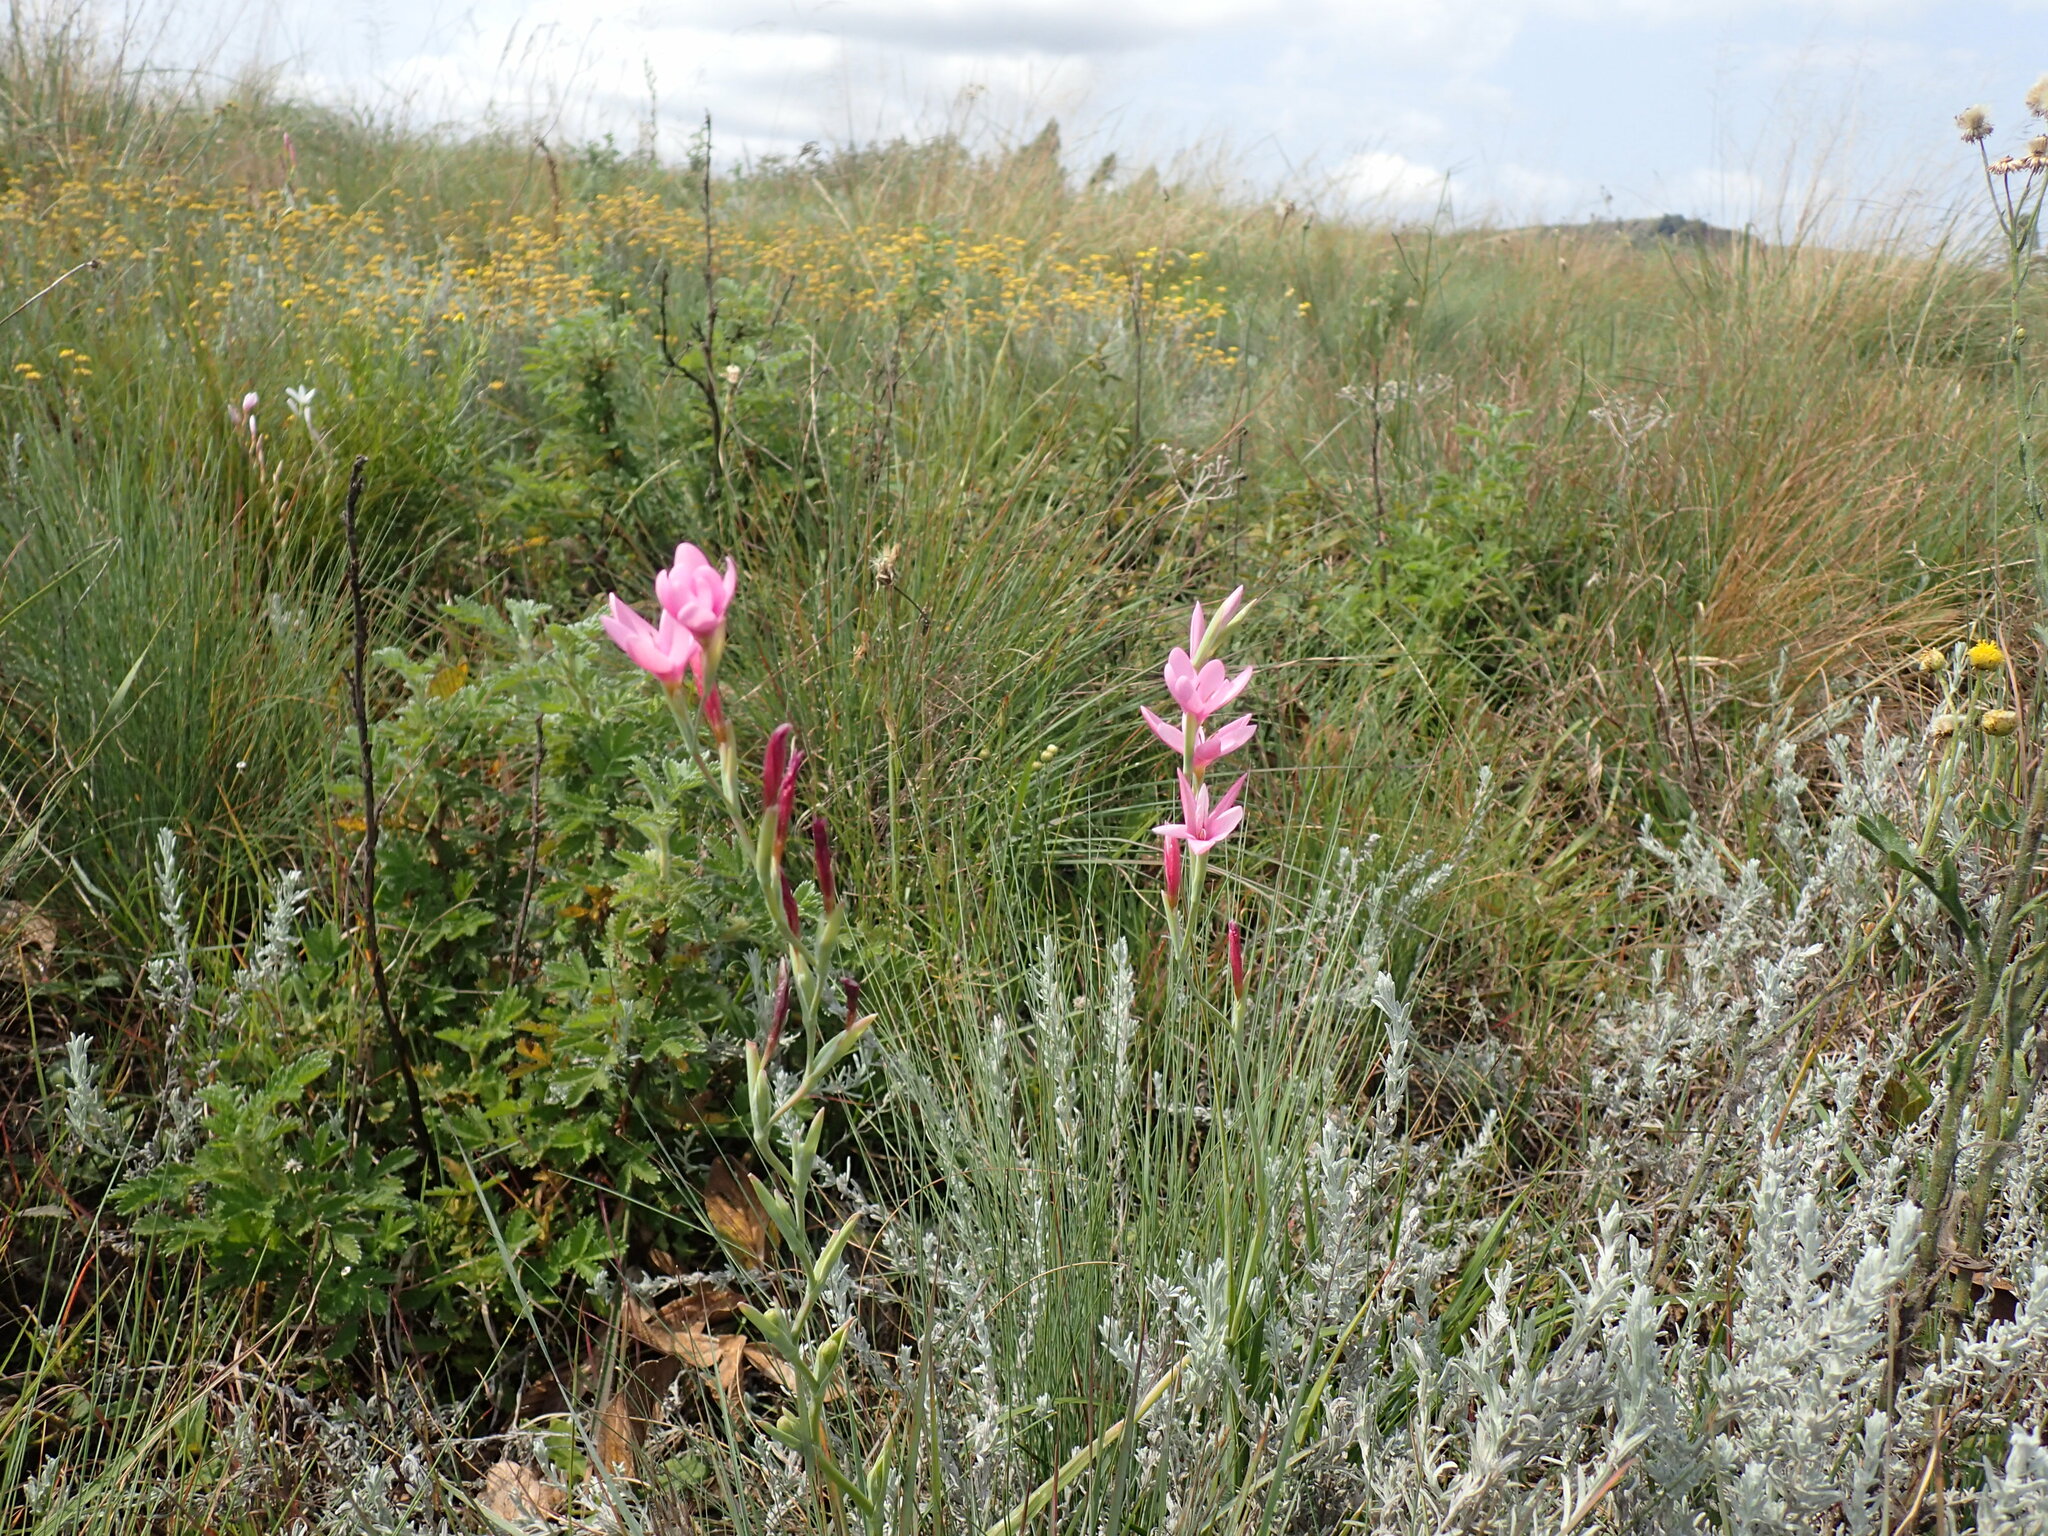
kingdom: Plantae
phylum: Tracheophyta
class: Liliopsida
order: Asparagales
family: Iridaceae
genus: Hesperantha
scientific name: Hesperantha baurii
